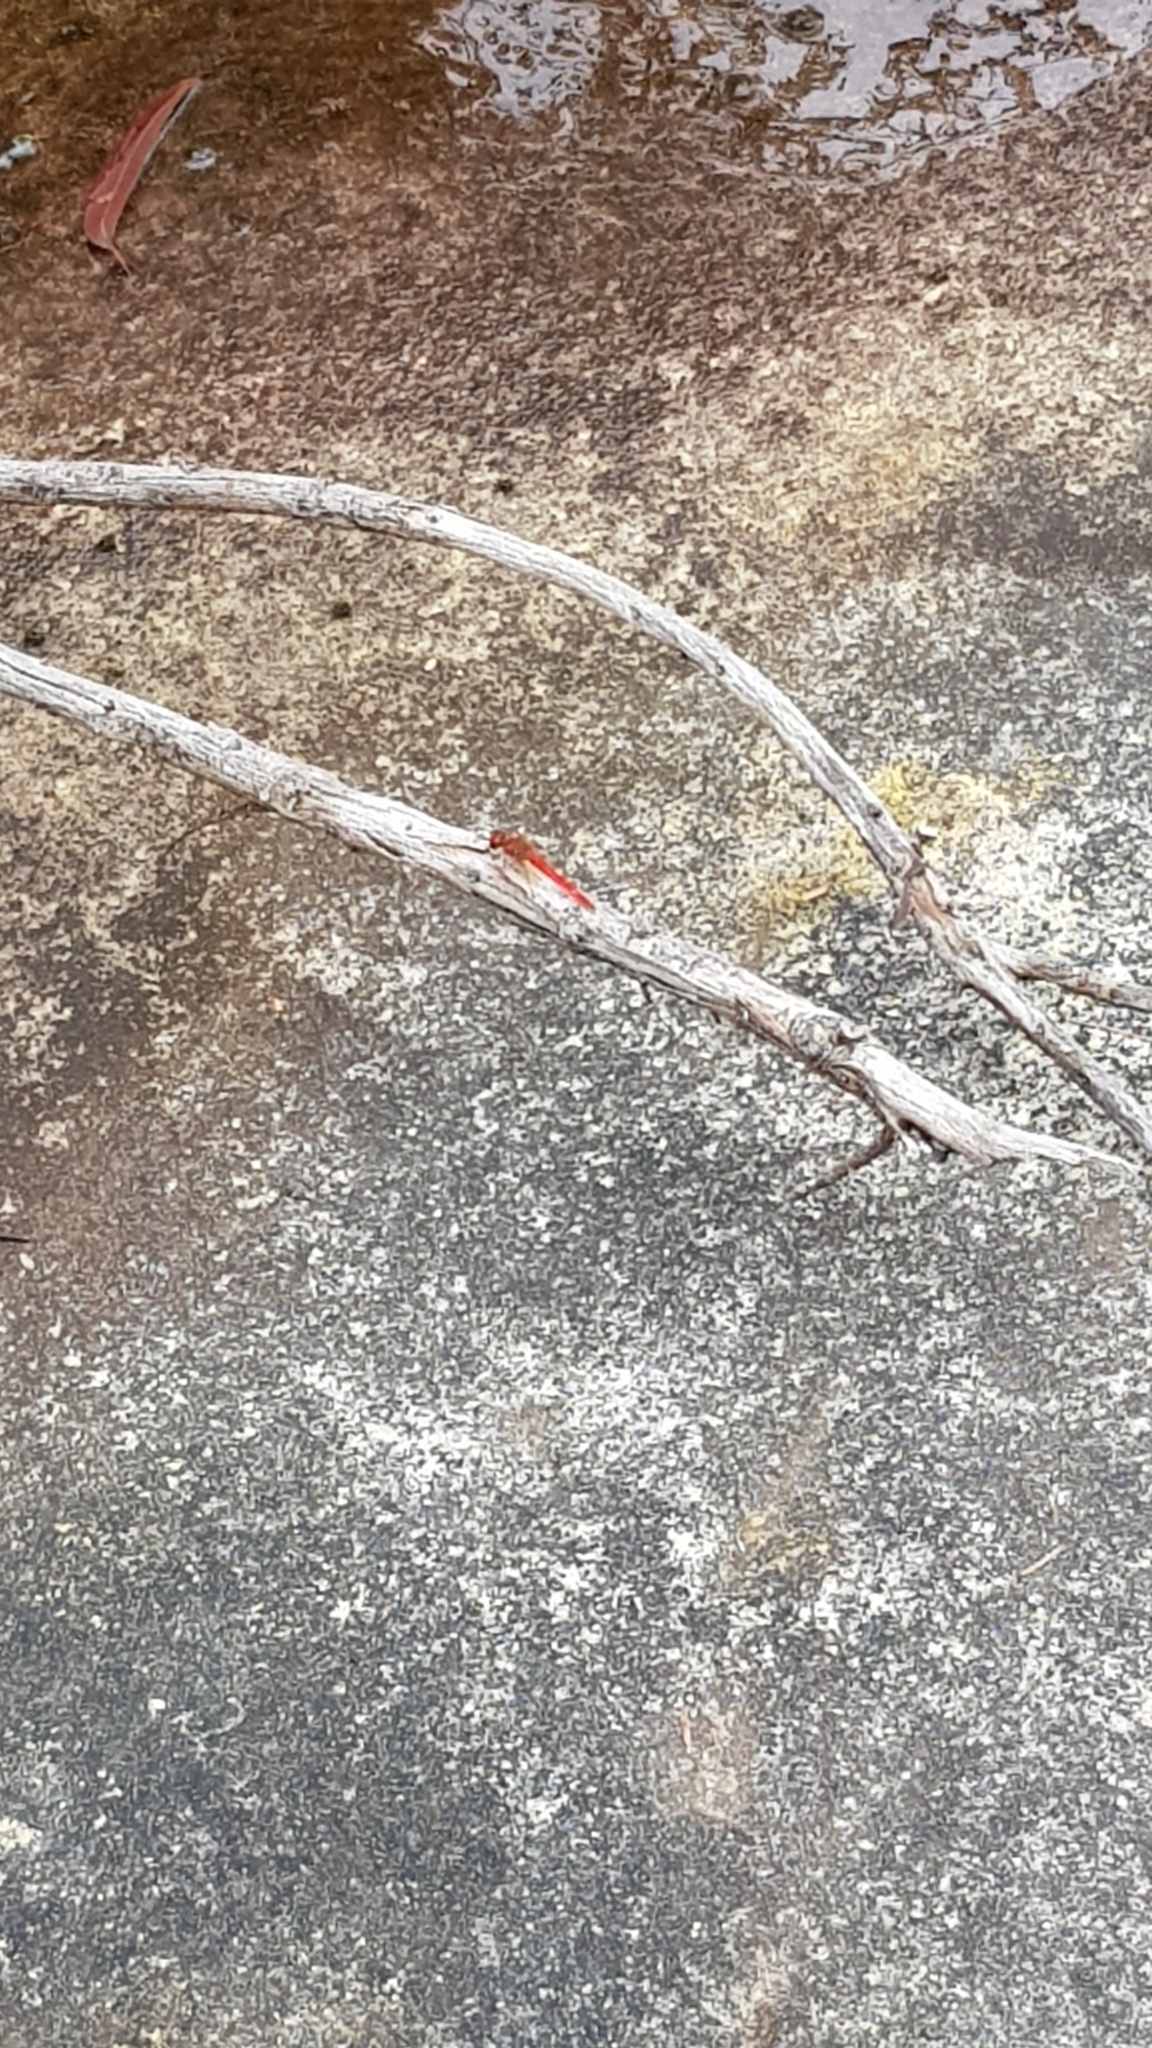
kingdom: Animalia
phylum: Arthropoda
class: Insecta
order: Odonata
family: Libellulidae
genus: Diplacodes
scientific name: Diplacodes haematodes
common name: Scarlet percher
